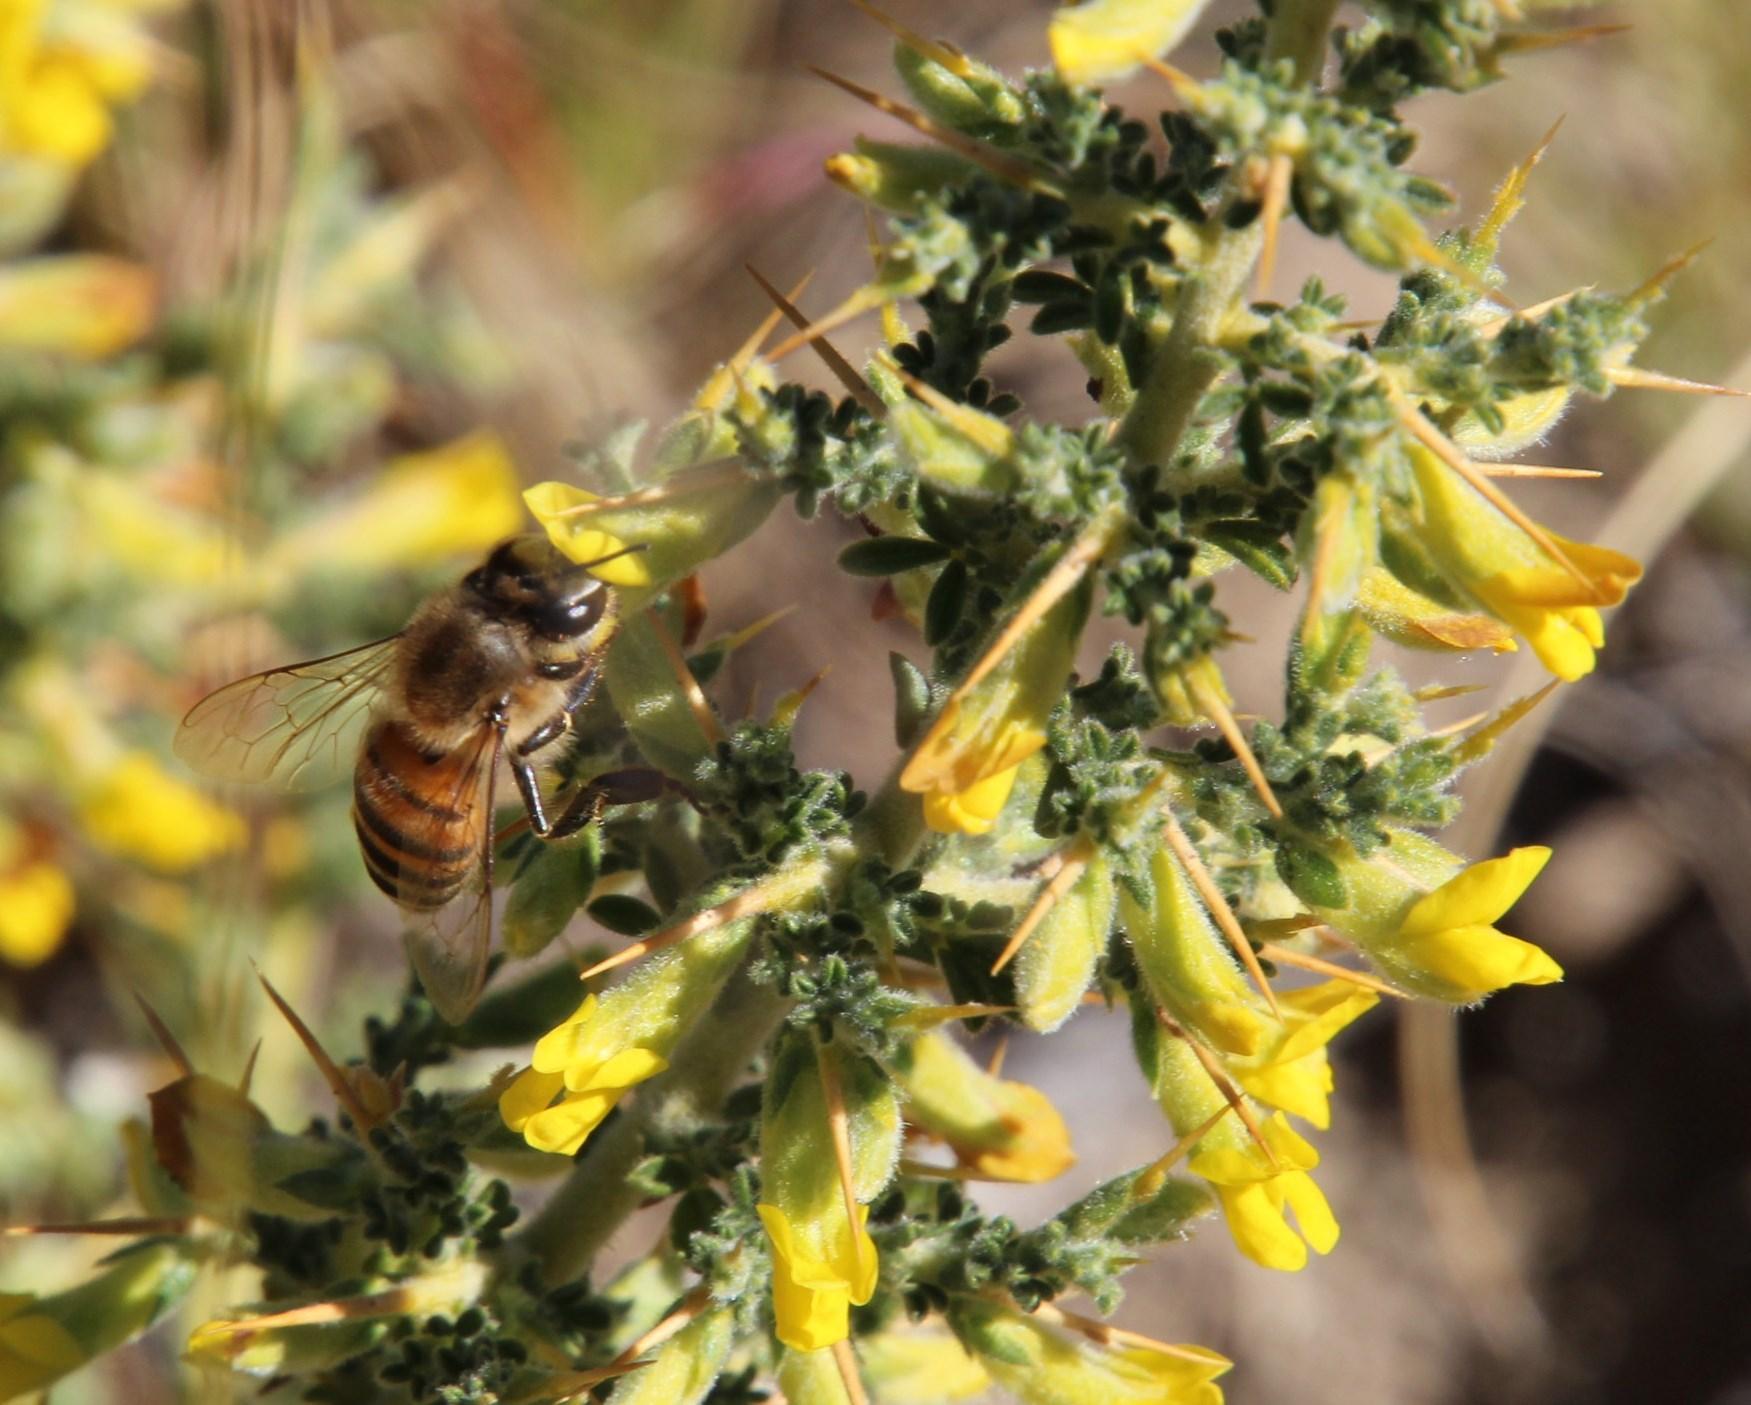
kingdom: Animalia
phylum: Arthropoda
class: Insecta
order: Hymenoptera
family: Apidae
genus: Apis
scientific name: Apis mellifera
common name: Honey bee
